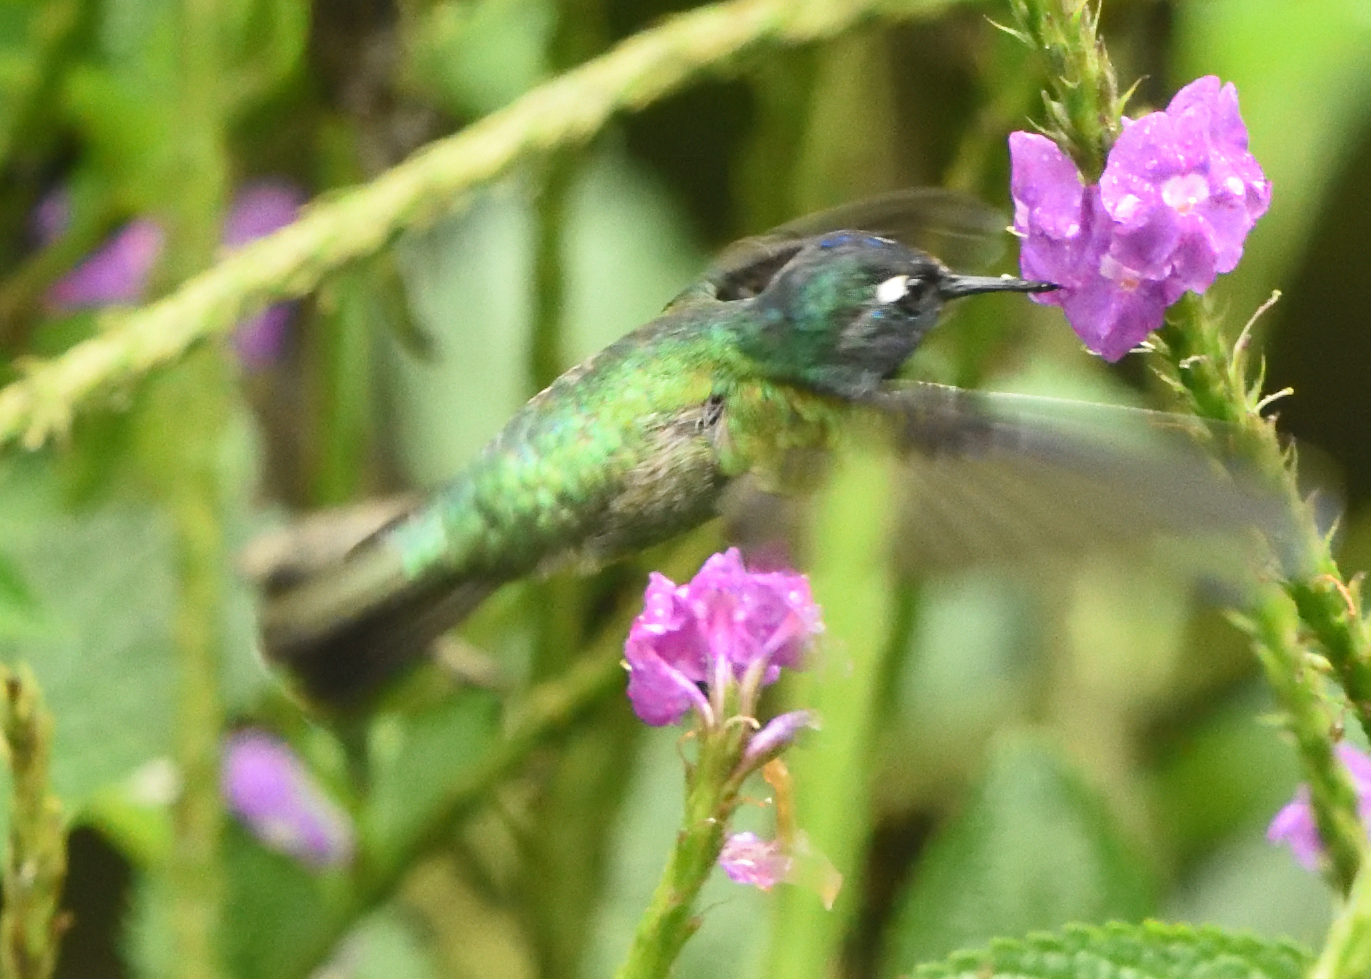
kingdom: Animalia
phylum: Chordata
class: Aves
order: Apodiformes
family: Trochilidae
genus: Klais
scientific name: Klais guimeti
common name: Violet-headed hummingbird
